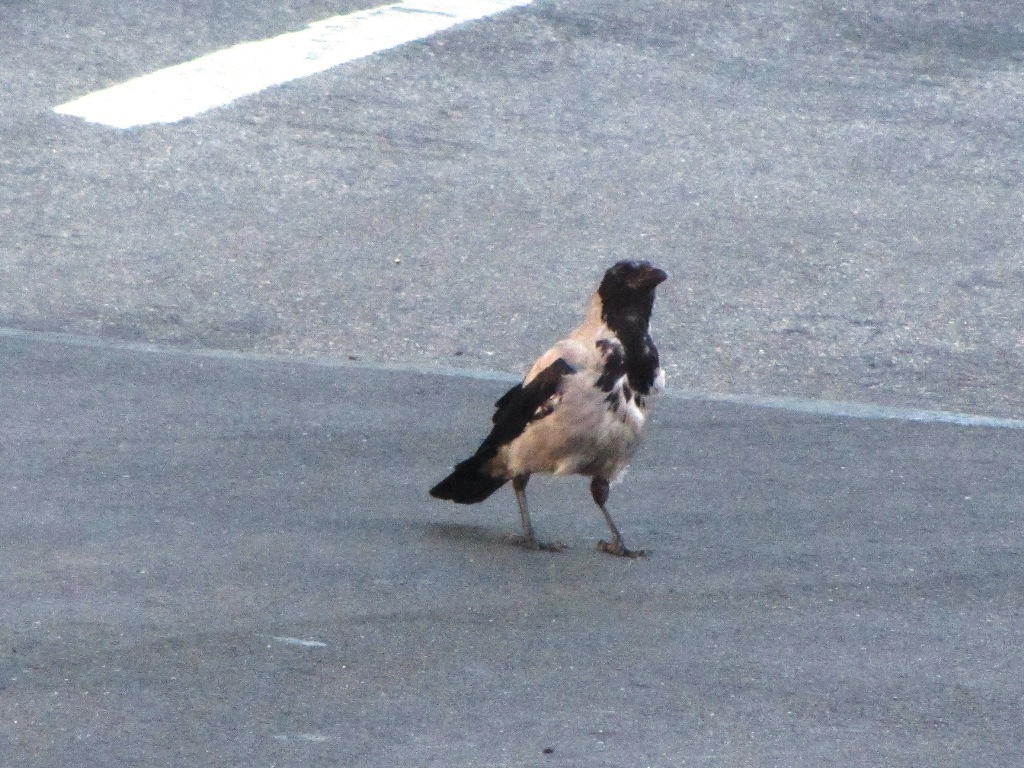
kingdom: Animalia
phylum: Chordata
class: Aves
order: Passeriformes
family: Corvidae
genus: Corvus
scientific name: Corvus cornix
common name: Hooded crow
